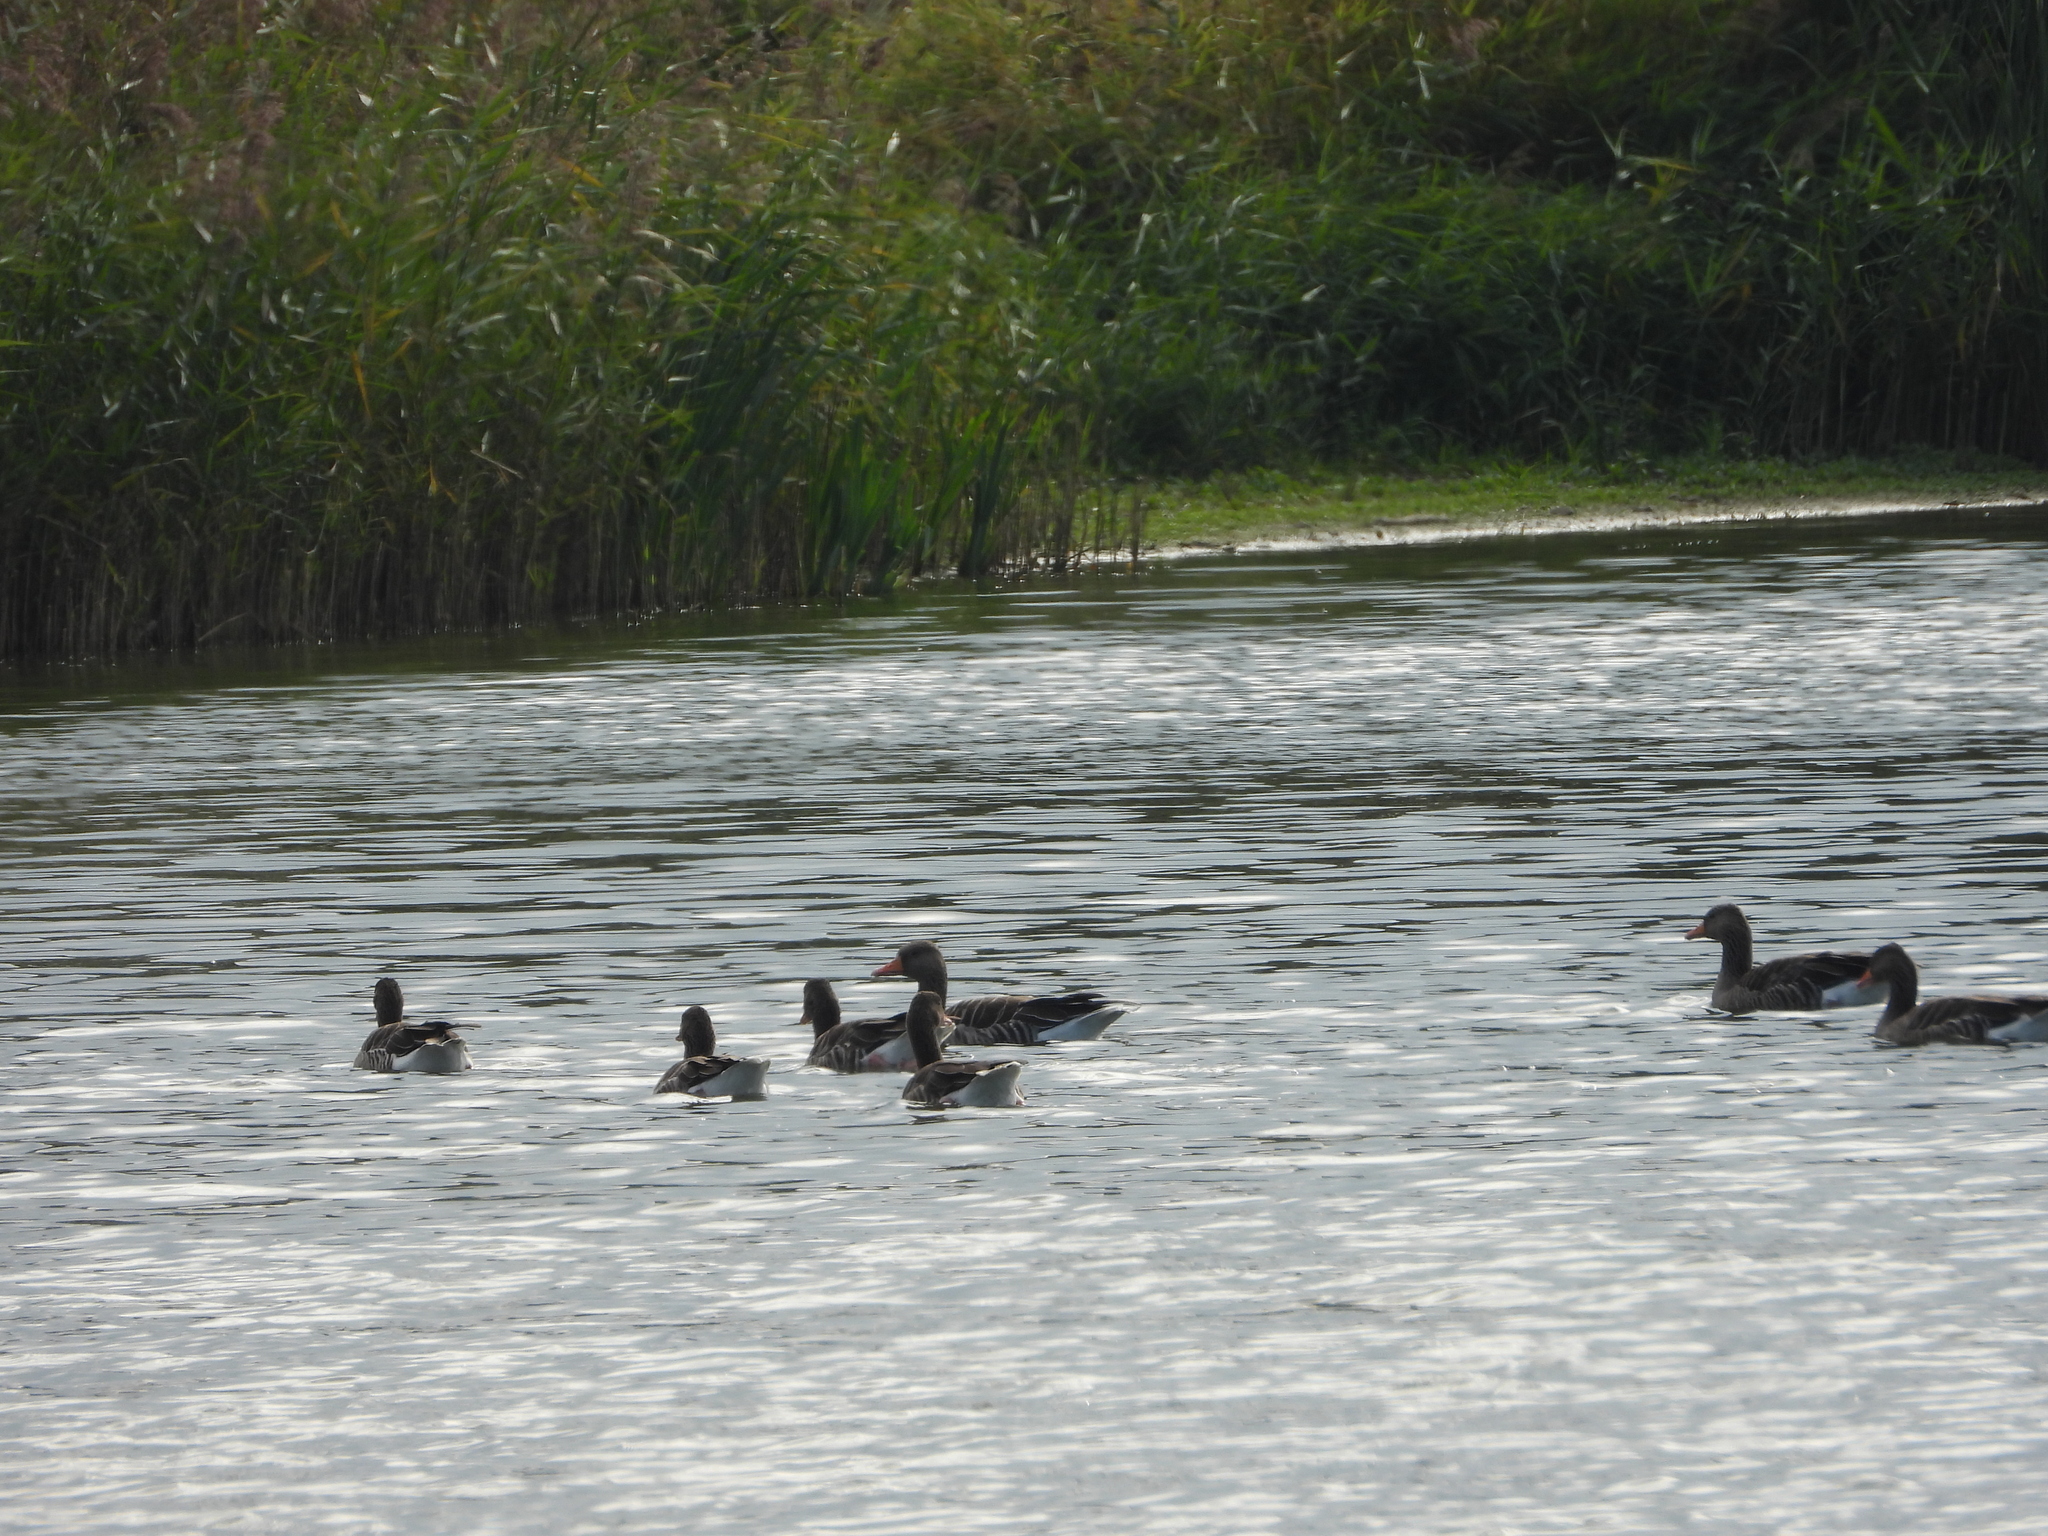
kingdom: Animalia
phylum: Chordata
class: Aves
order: Anseriformes
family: Anatidae
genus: Anser
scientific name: Anser anser
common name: Greylag goose
